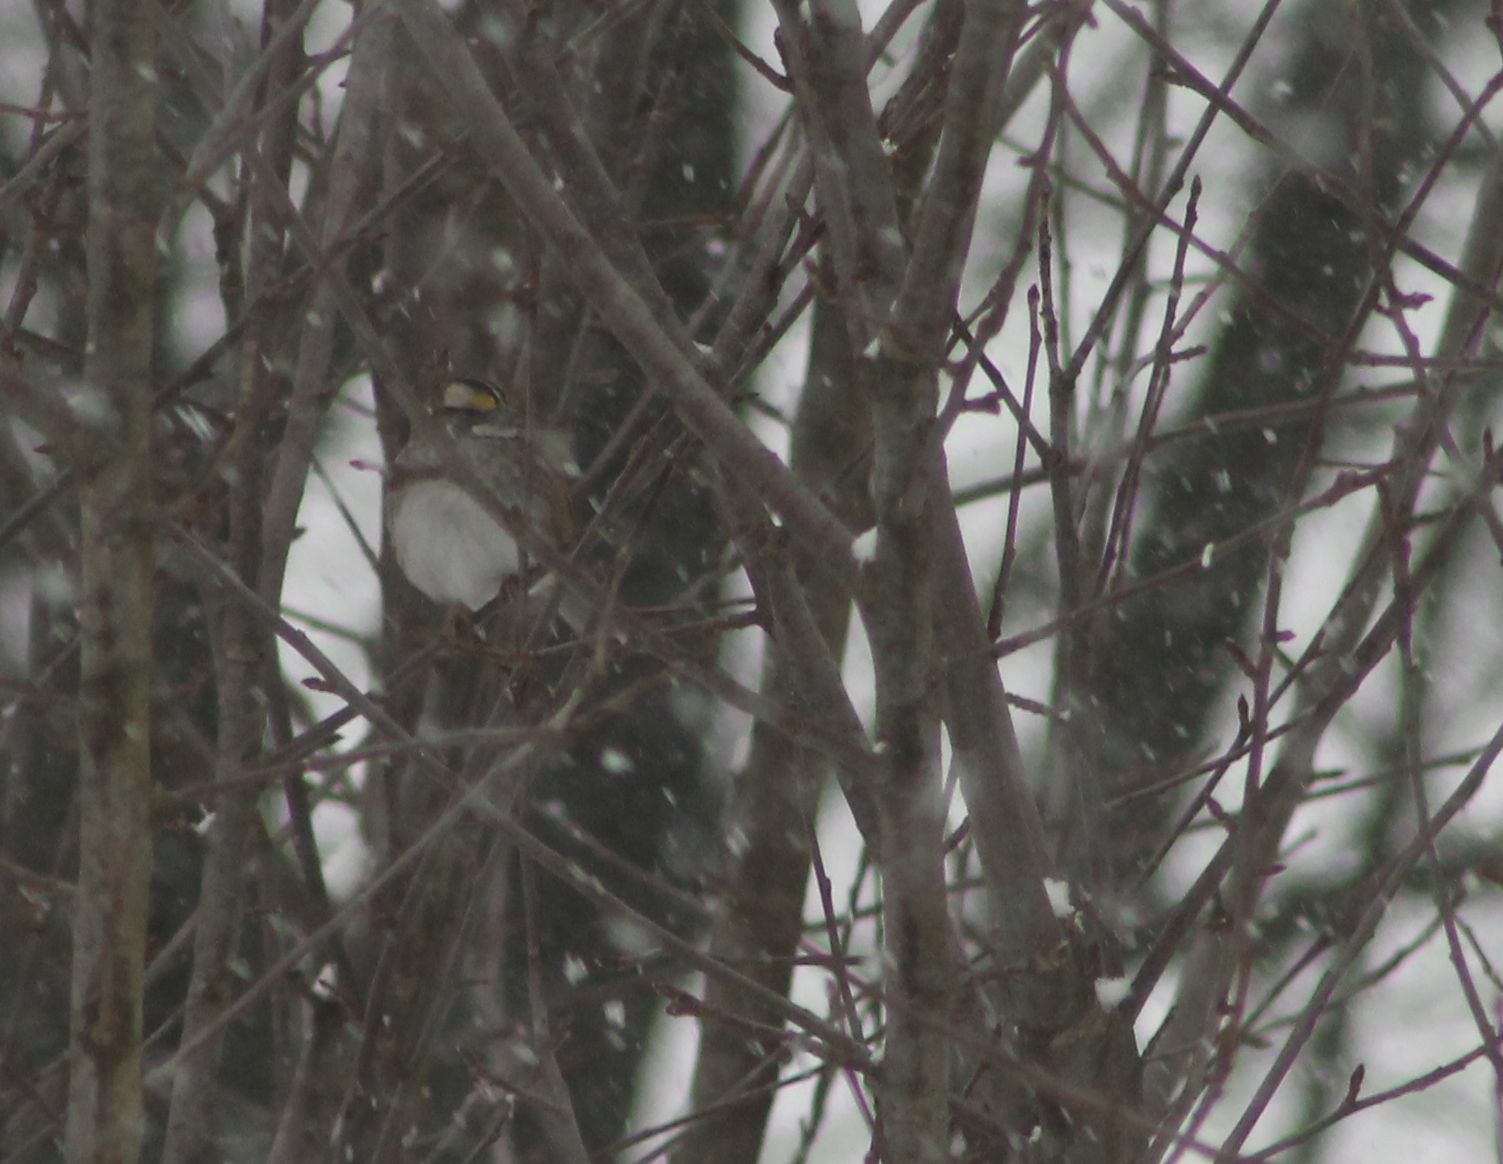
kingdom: Animalia
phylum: Chordata
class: Aves
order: Passeriformes
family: Passerellidae
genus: Zonotrichia
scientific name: Zonotrichia albicollis
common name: White-throated sparrow
